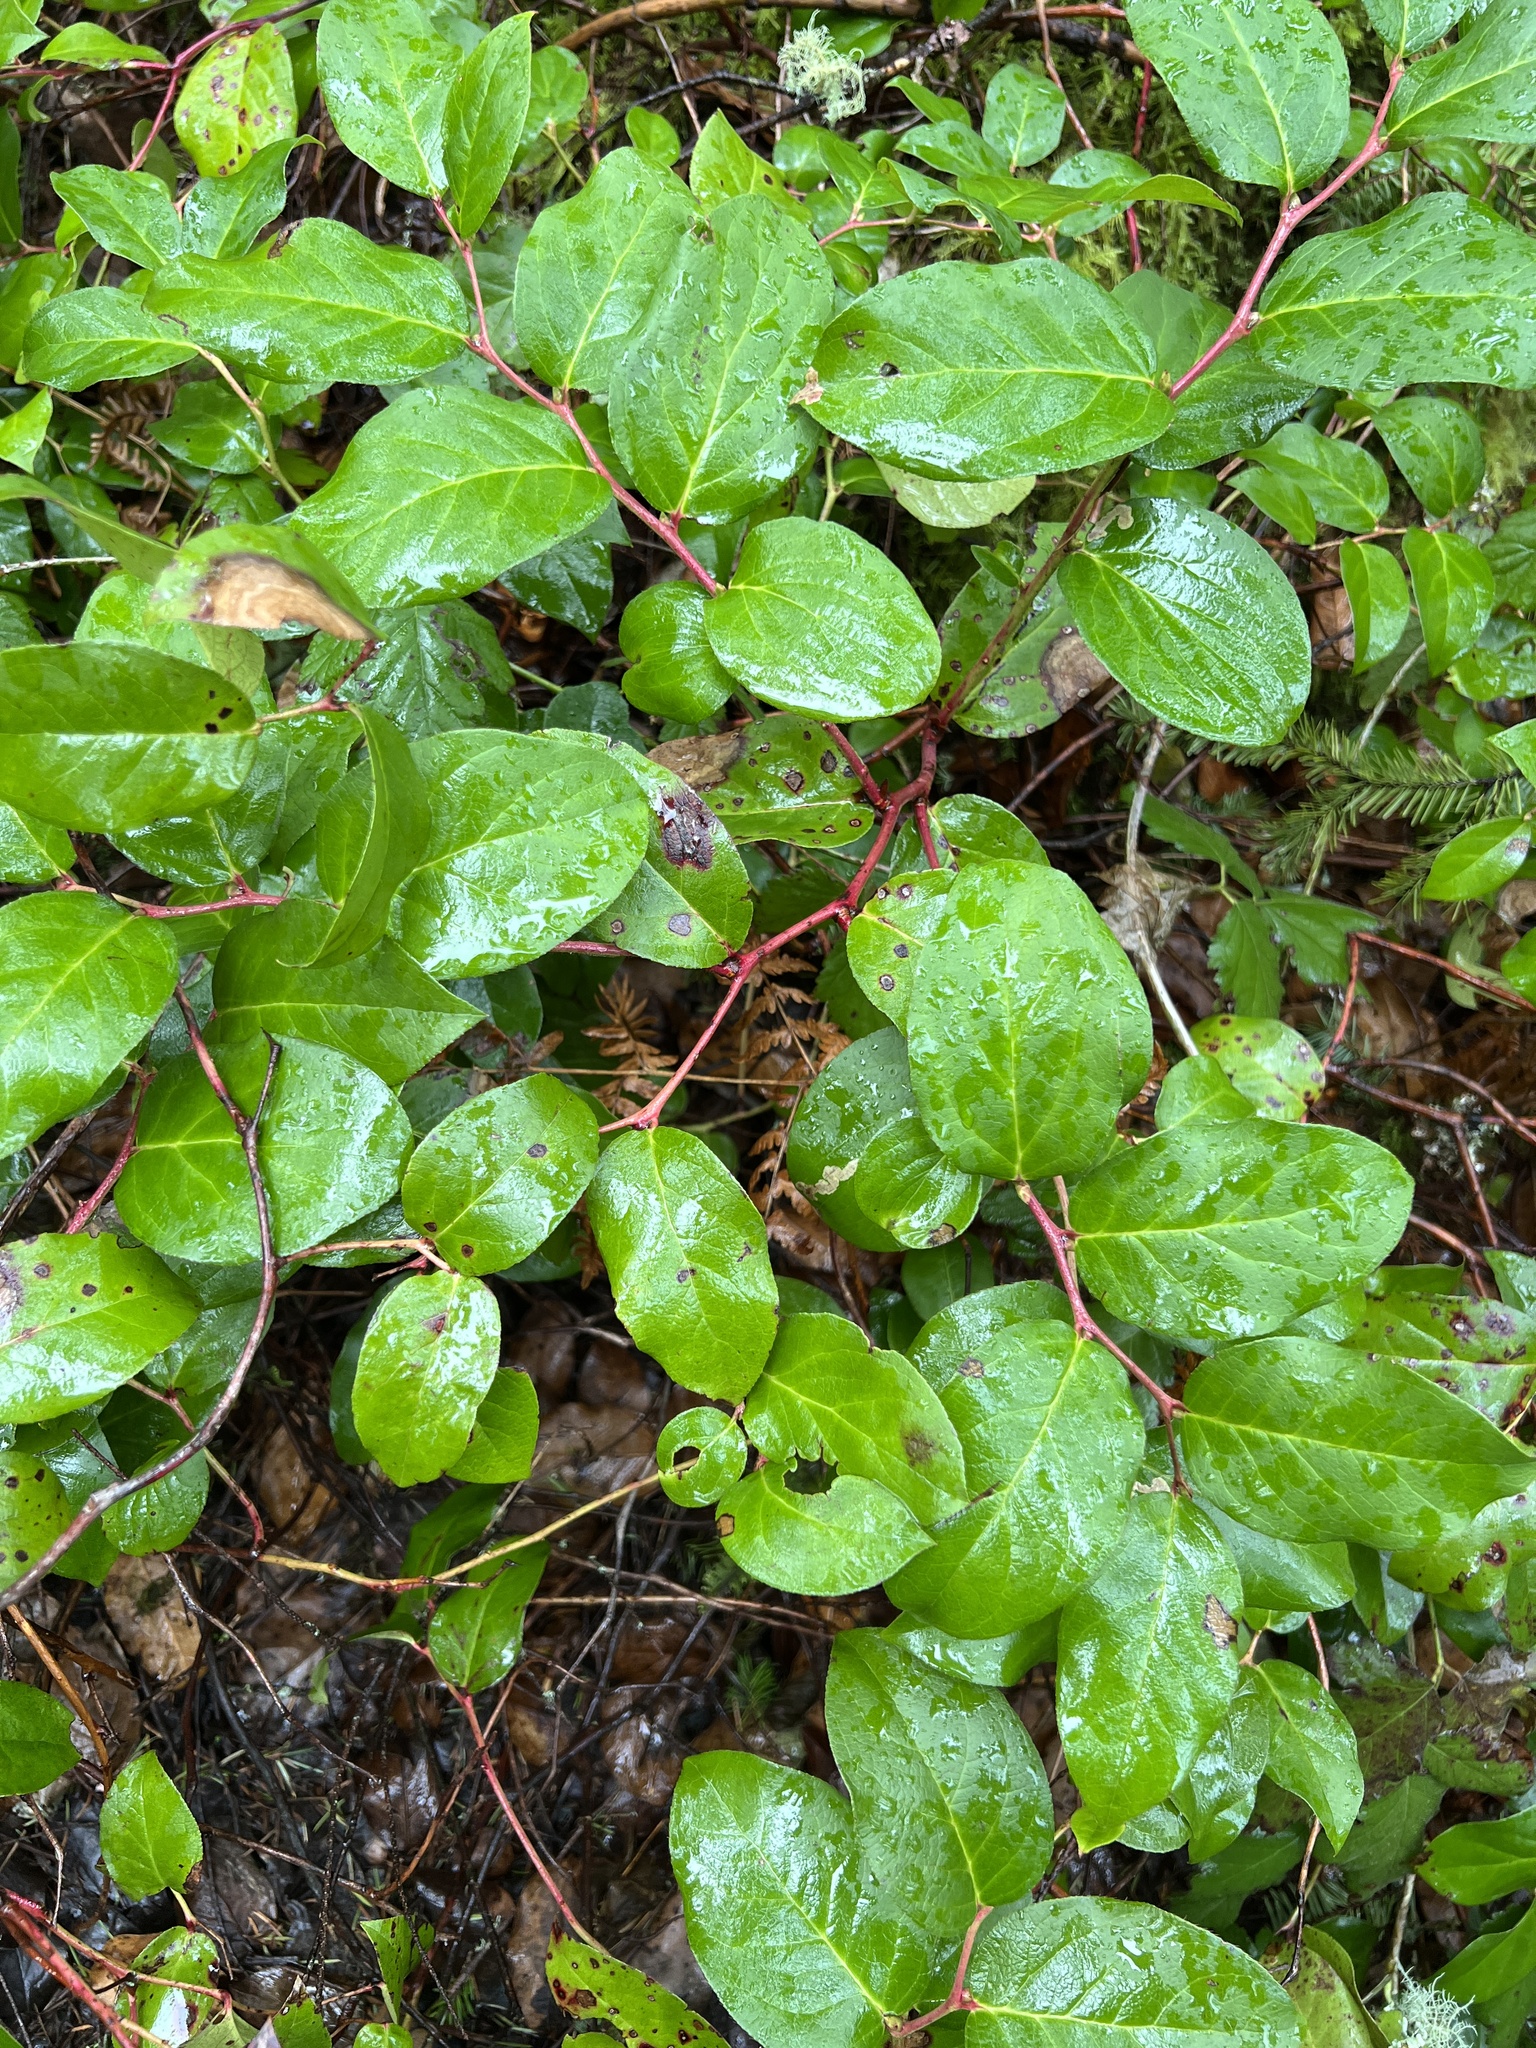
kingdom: Plantae
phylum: Tracheophyta
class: Magnoliopsida
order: Ericales
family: Ericaceae
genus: Gaultheria
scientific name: Gaultheria shallon
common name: Shallon
